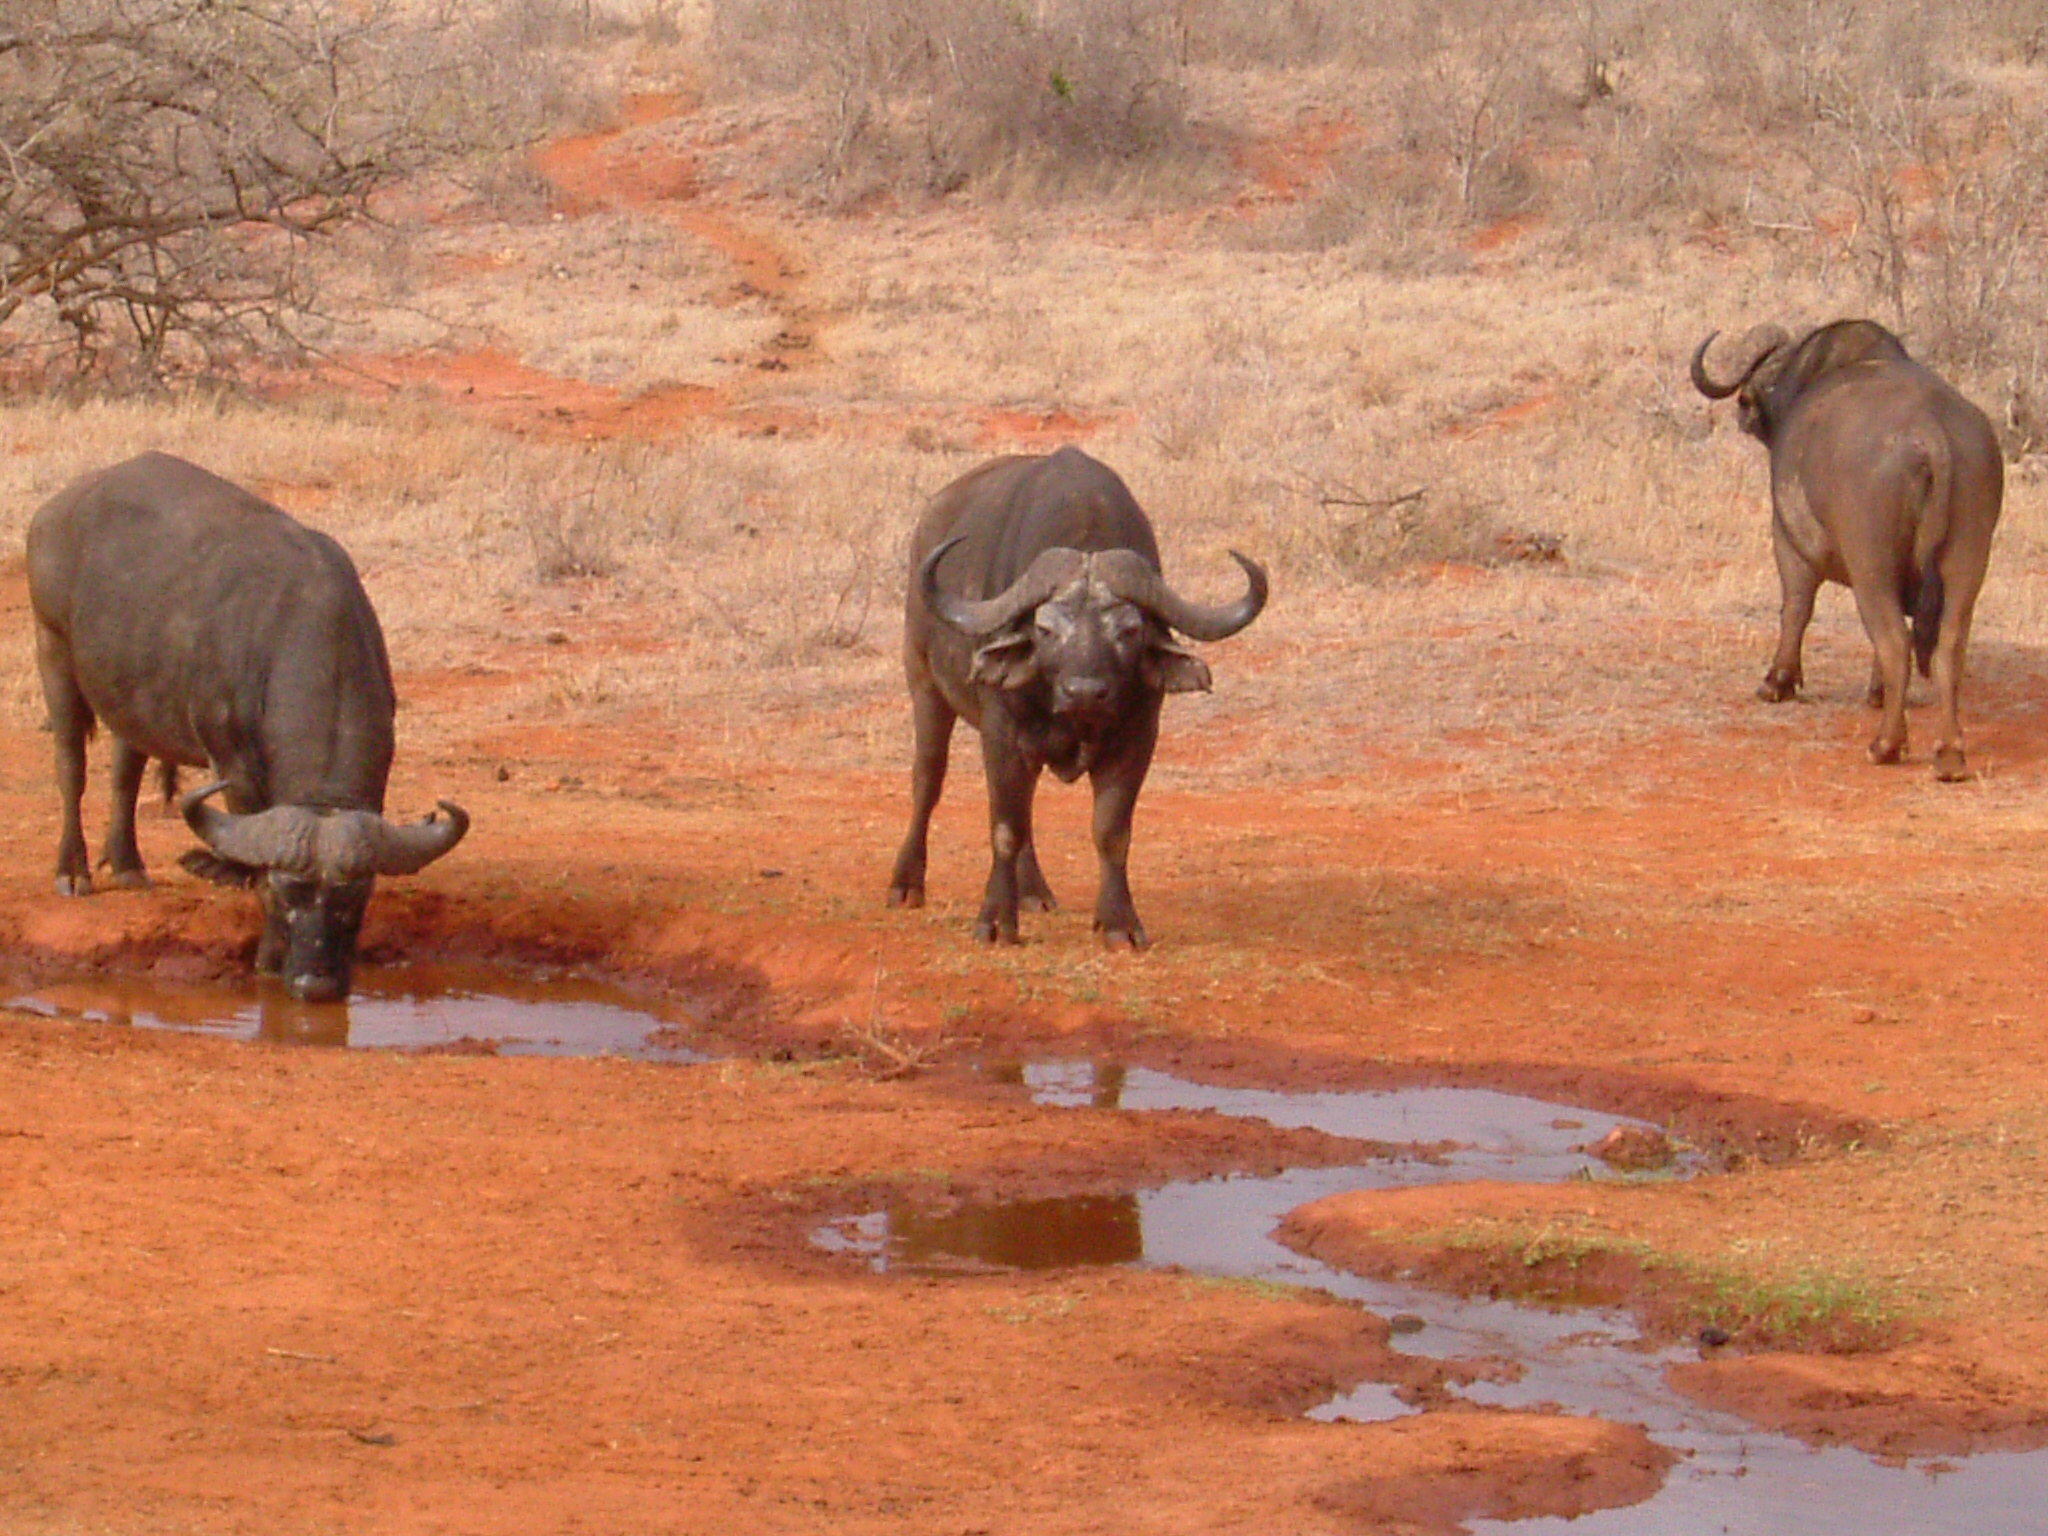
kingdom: Animalia
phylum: Chordata
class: Mammalia
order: Artiodactyla
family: Bovidae
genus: Syncerus
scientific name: Syncerus caffer
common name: African buffalo
